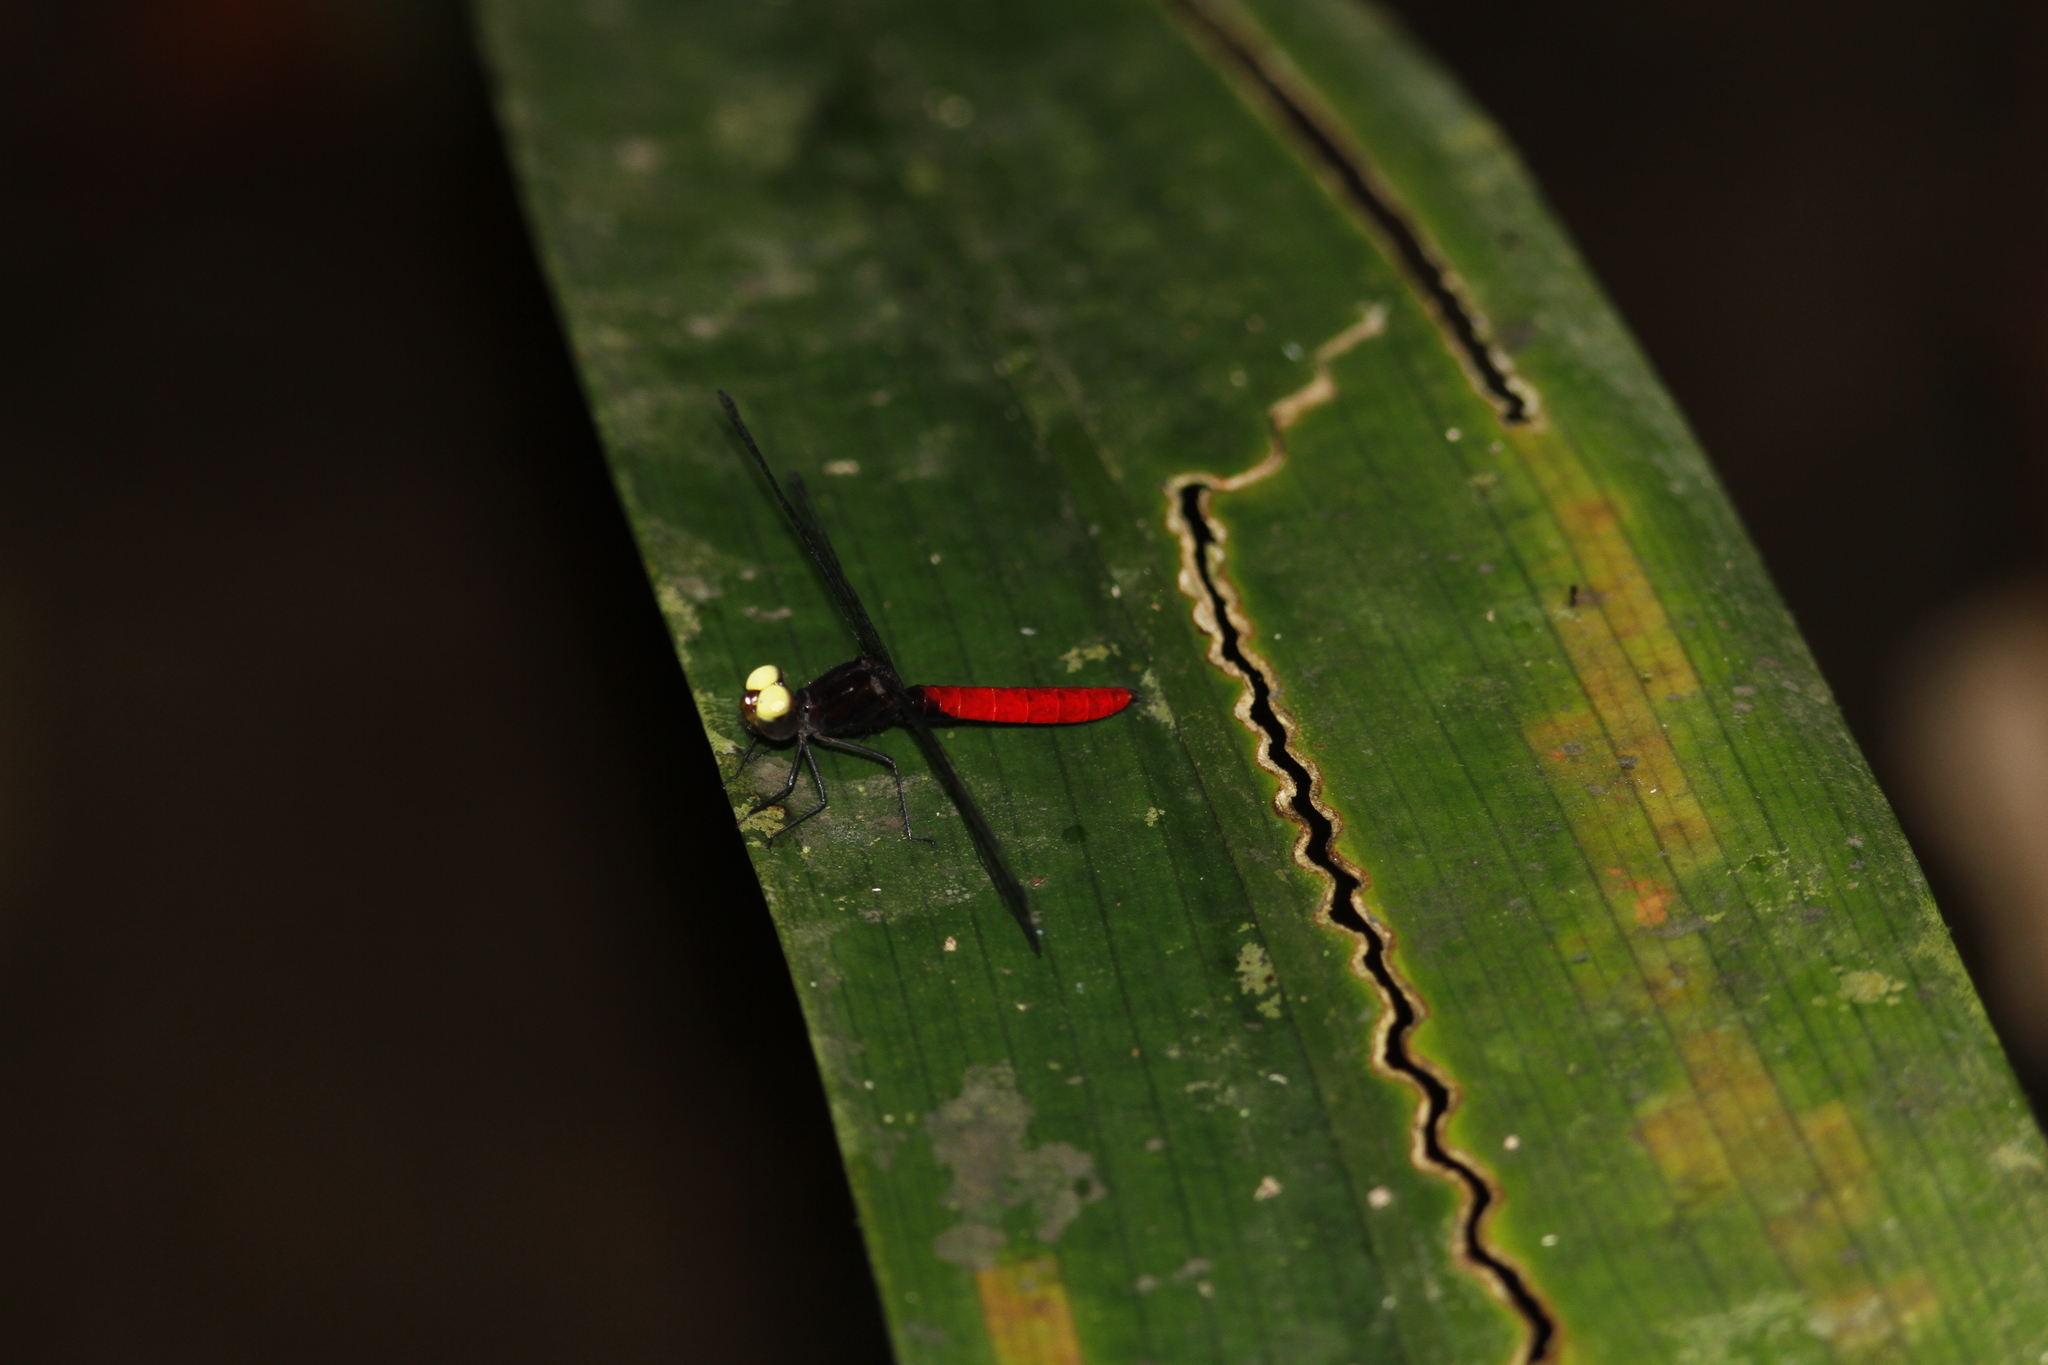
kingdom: Animalia
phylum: Arthropoda
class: Insecta
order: Odonata
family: Libellulidae
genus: Fylgia
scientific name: Fylgia amazonica
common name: White-eyed skimmer
